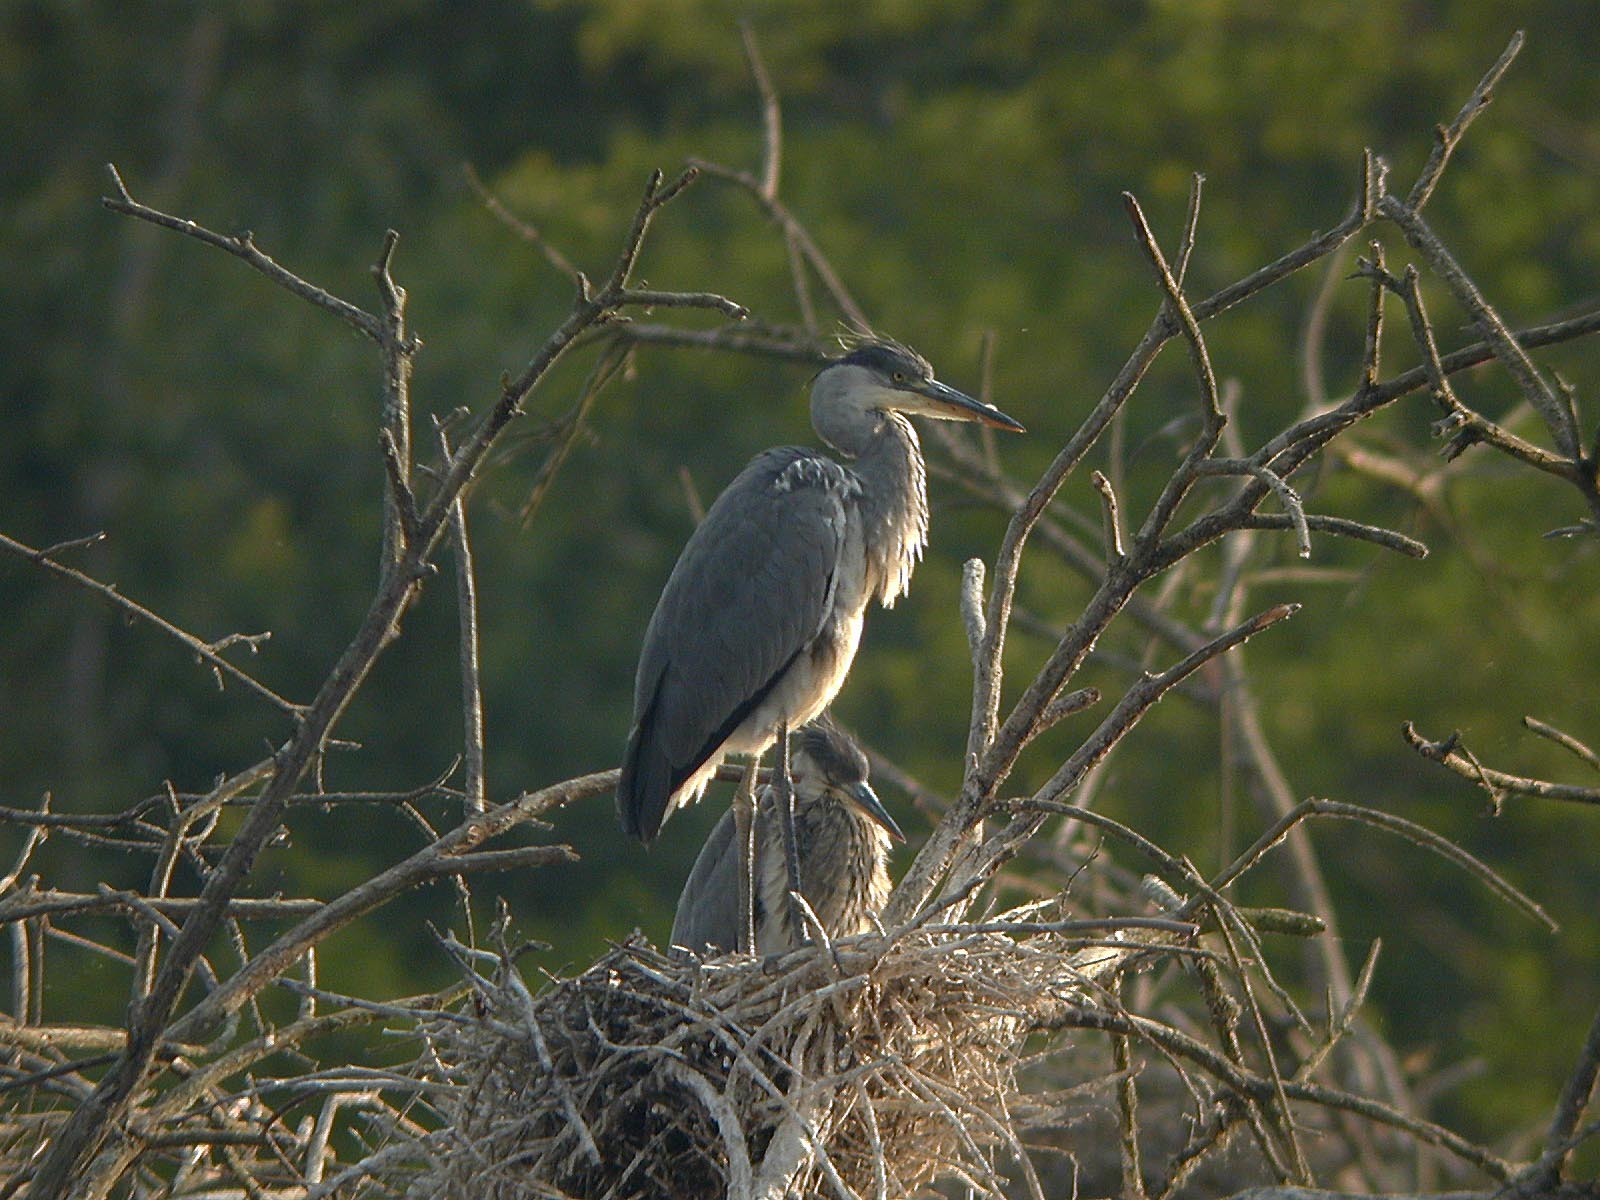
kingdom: Animalia
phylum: Chordata
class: Aves
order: Pelecaniformes
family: Ardeidae
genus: Ardea
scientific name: Ardea cinerea
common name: Grey heron
